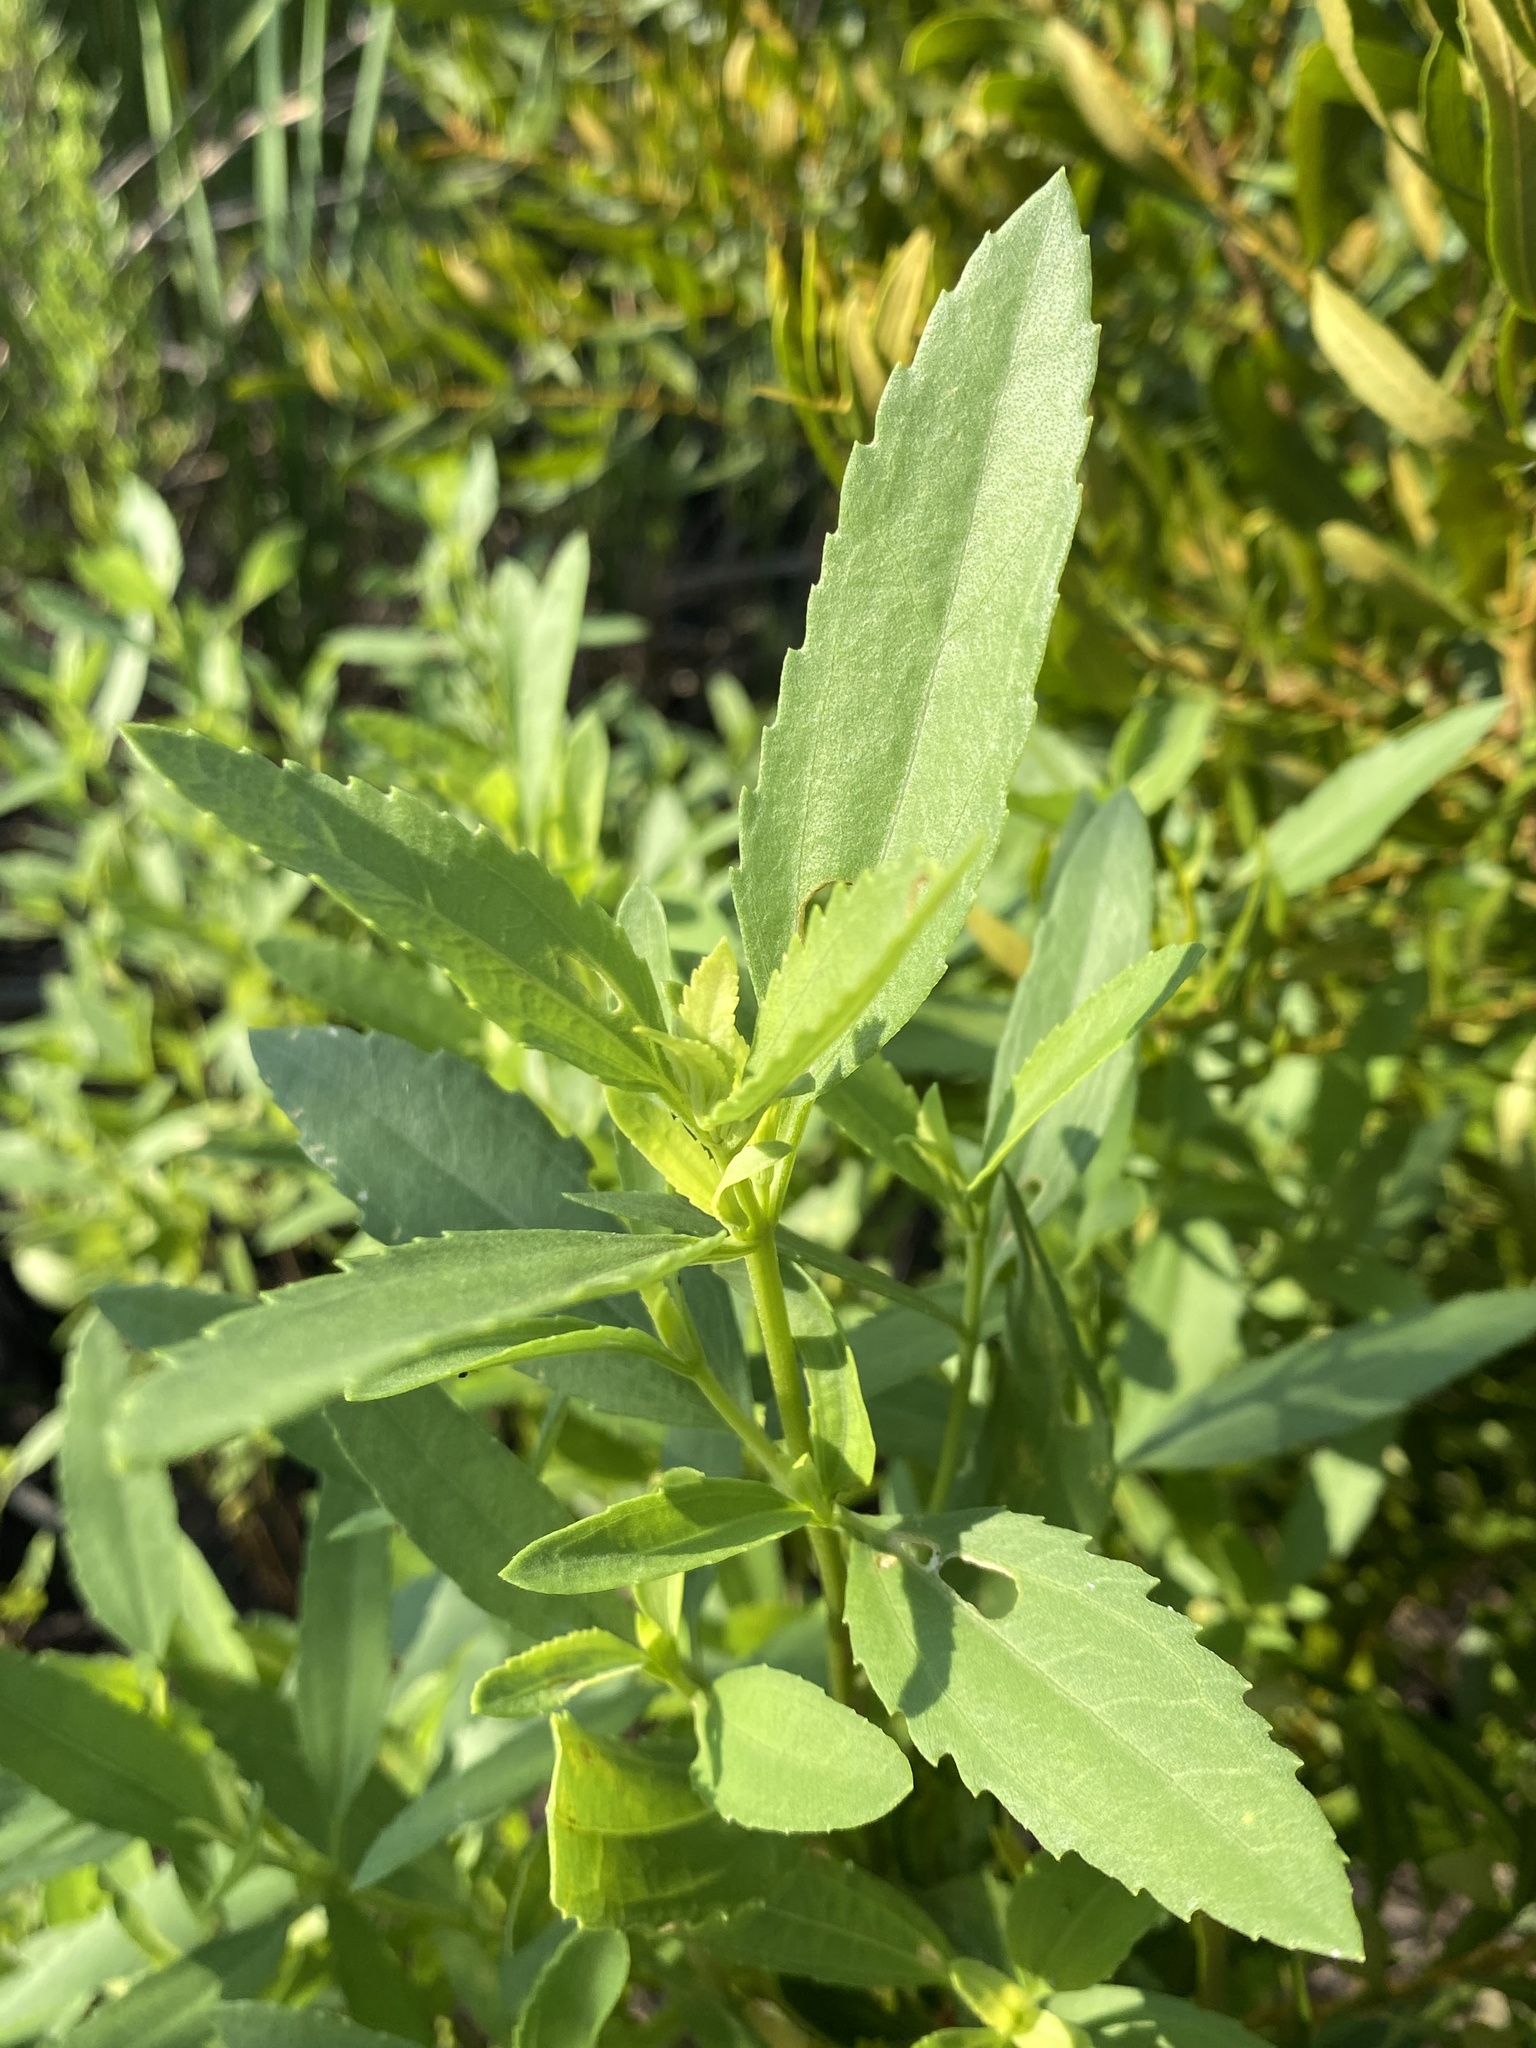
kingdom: Plantae
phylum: Tracheophyta
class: Magnoliopsida
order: Asterales
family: Asteraceae
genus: Iva
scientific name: Iva frutescens
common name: Big-leaved marsh-elder
